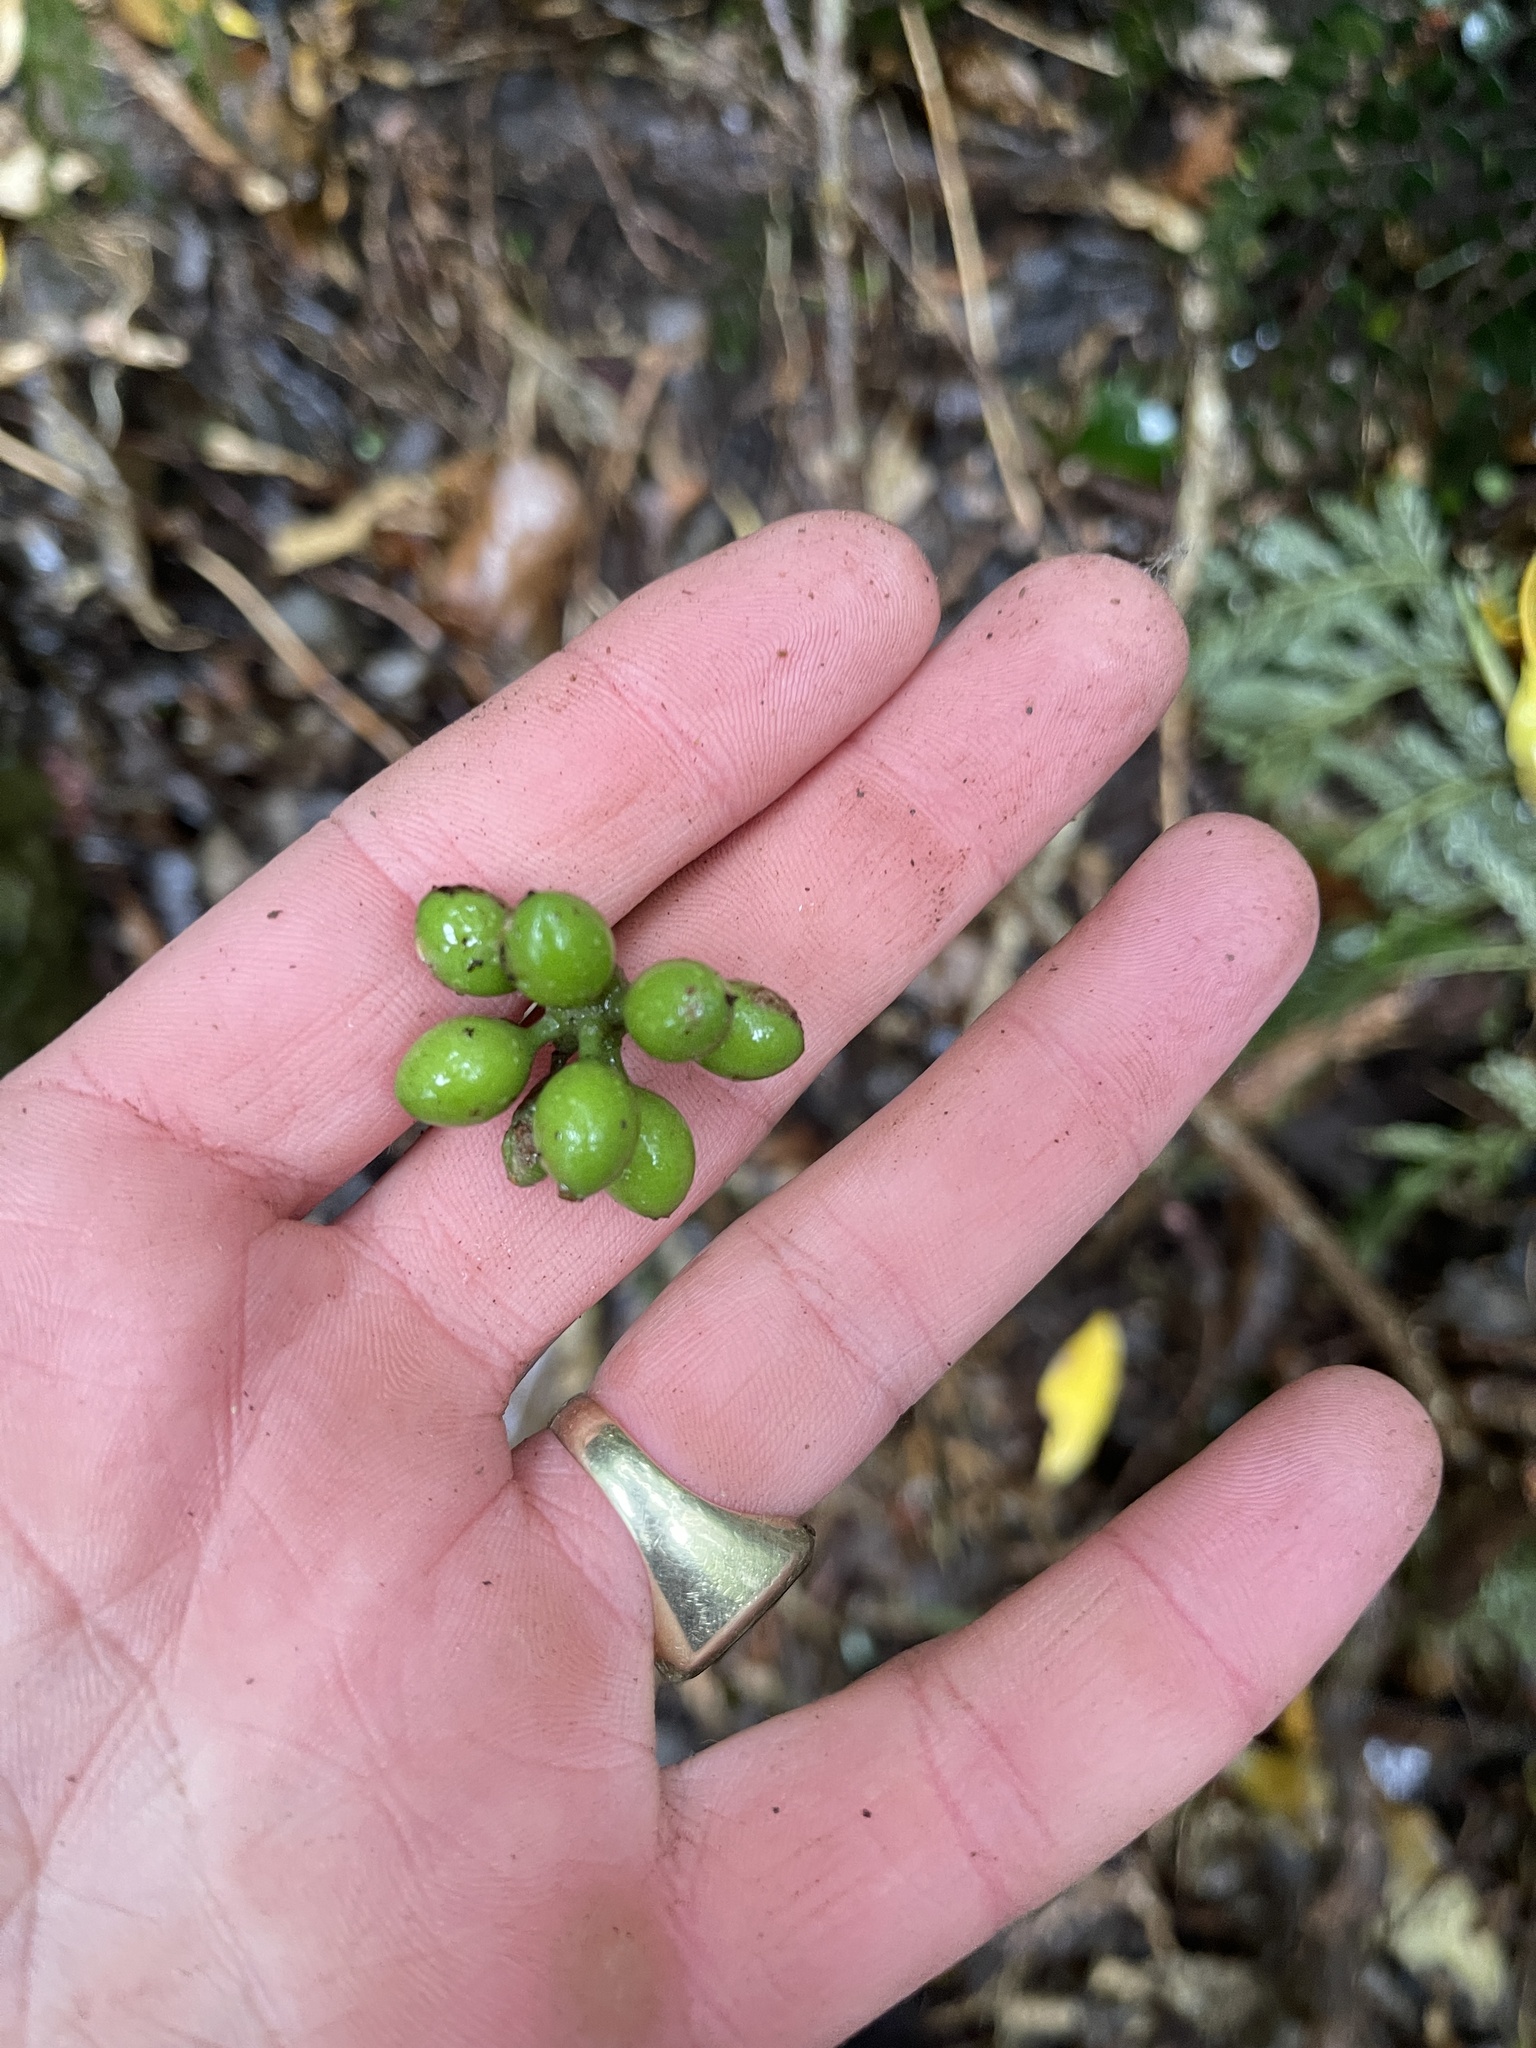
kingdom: Plantae
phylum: Tracheophyta
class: Magnoliopsida
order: Laurales
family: Monimiaceae
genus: Hedycarya
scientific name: Hedycarya arborea
